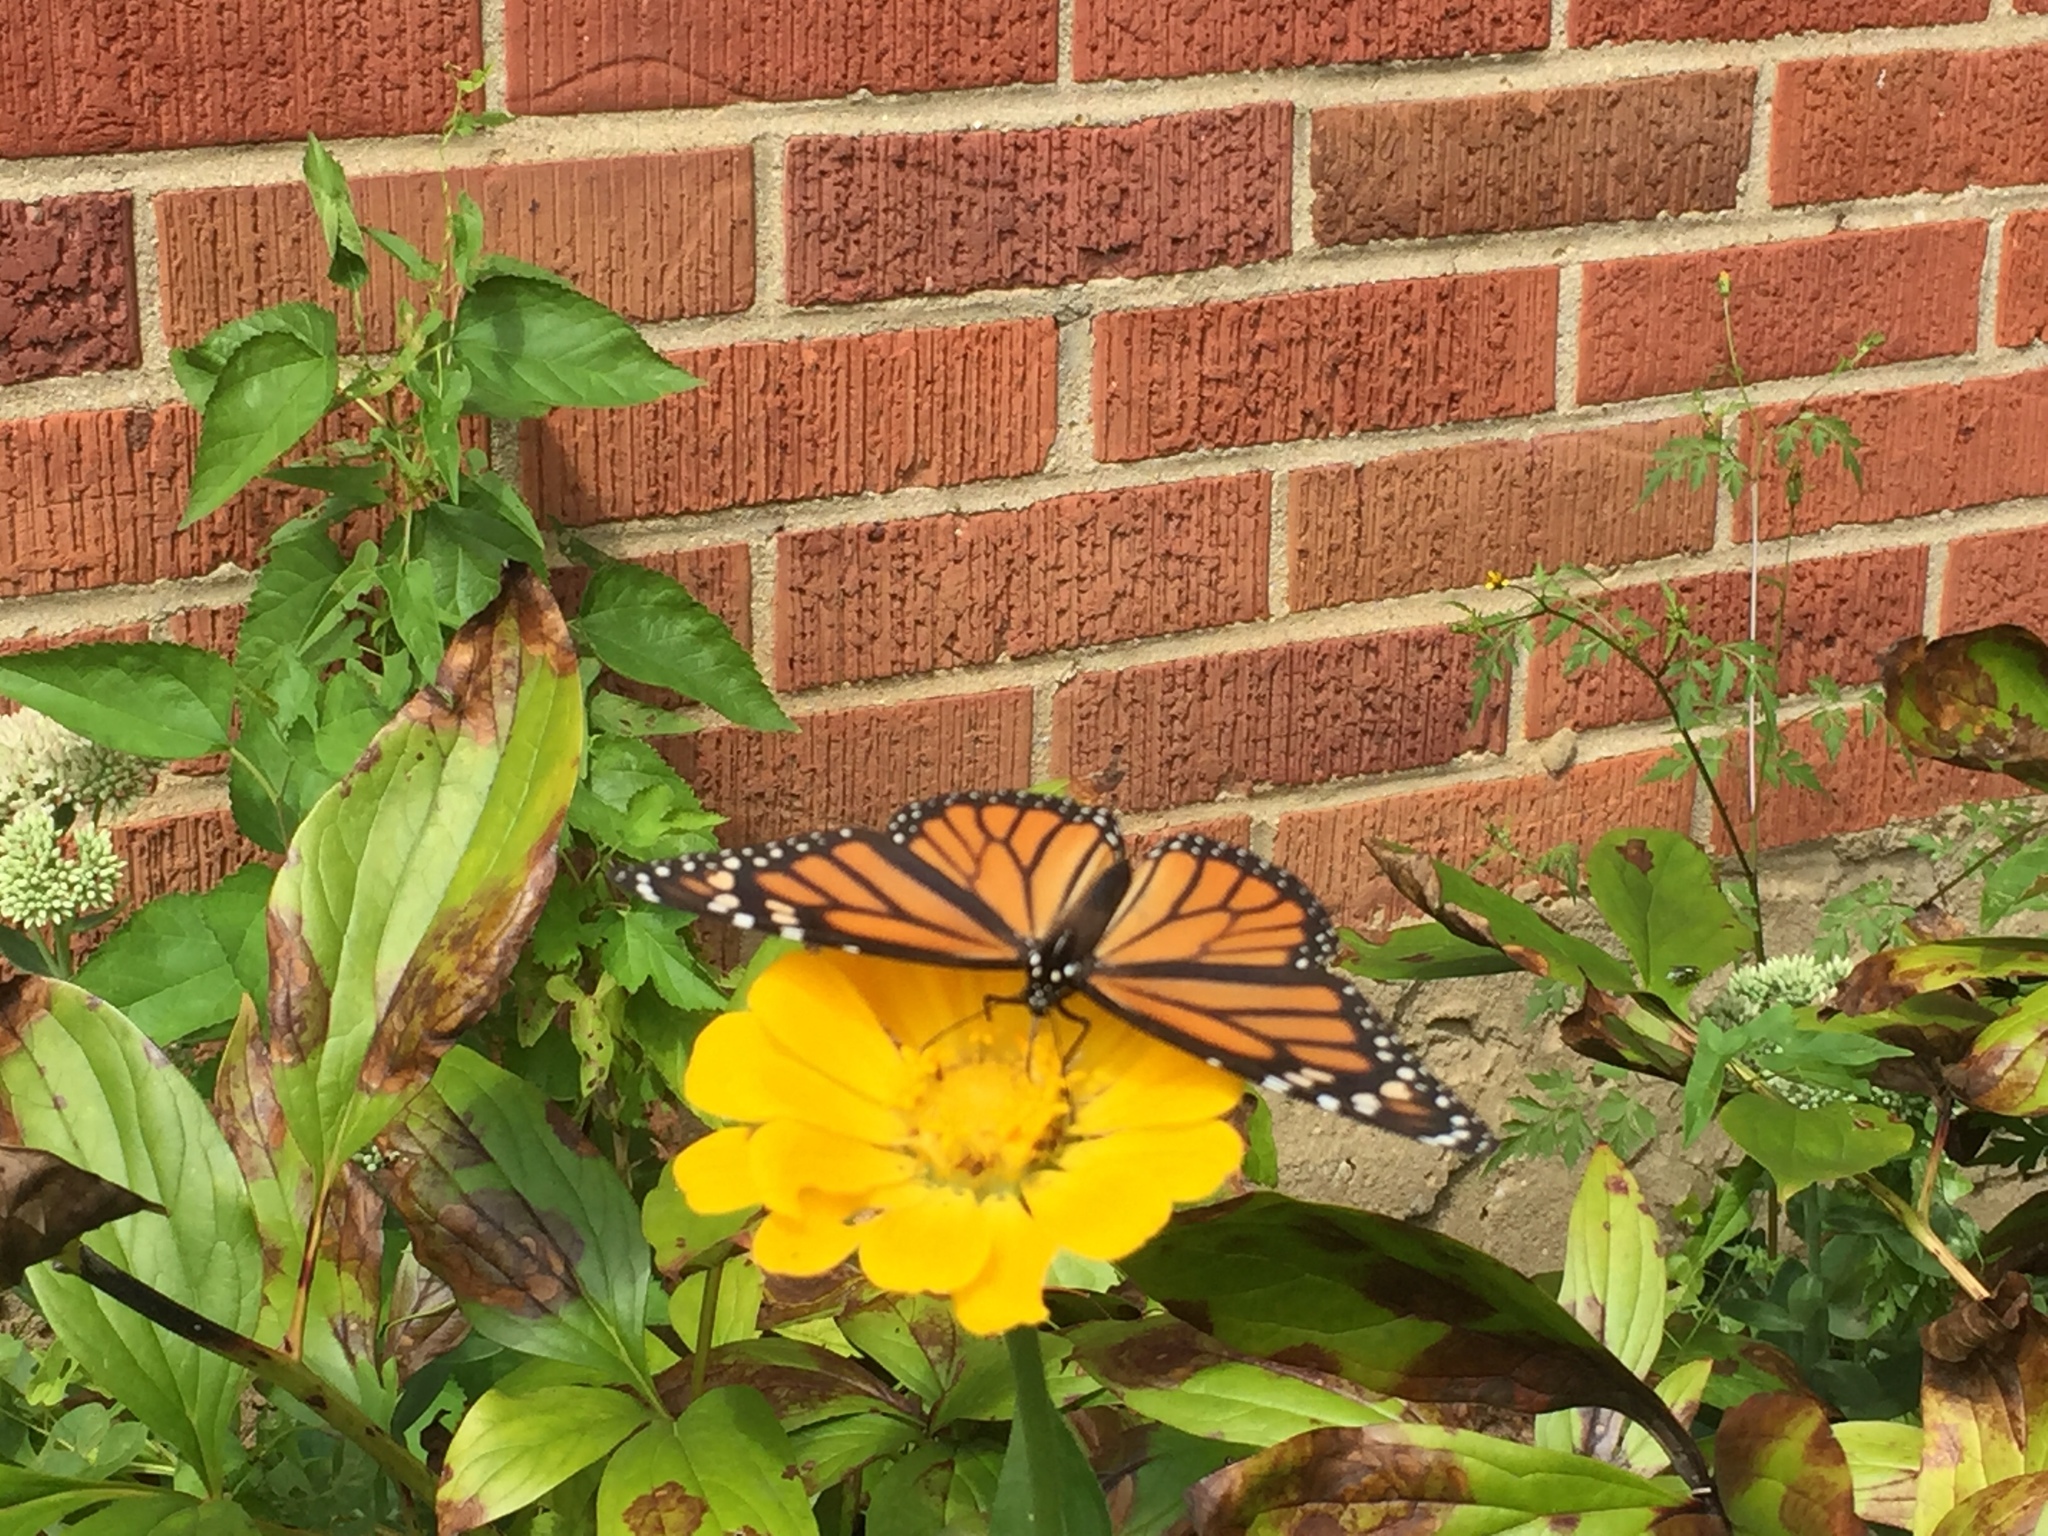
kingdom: Animalia
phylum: Arthropoda
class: Insecta
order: Lepidoptera
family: Nymphalidae
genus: Danaus
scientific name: Danaus plexippus
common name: Monarch
